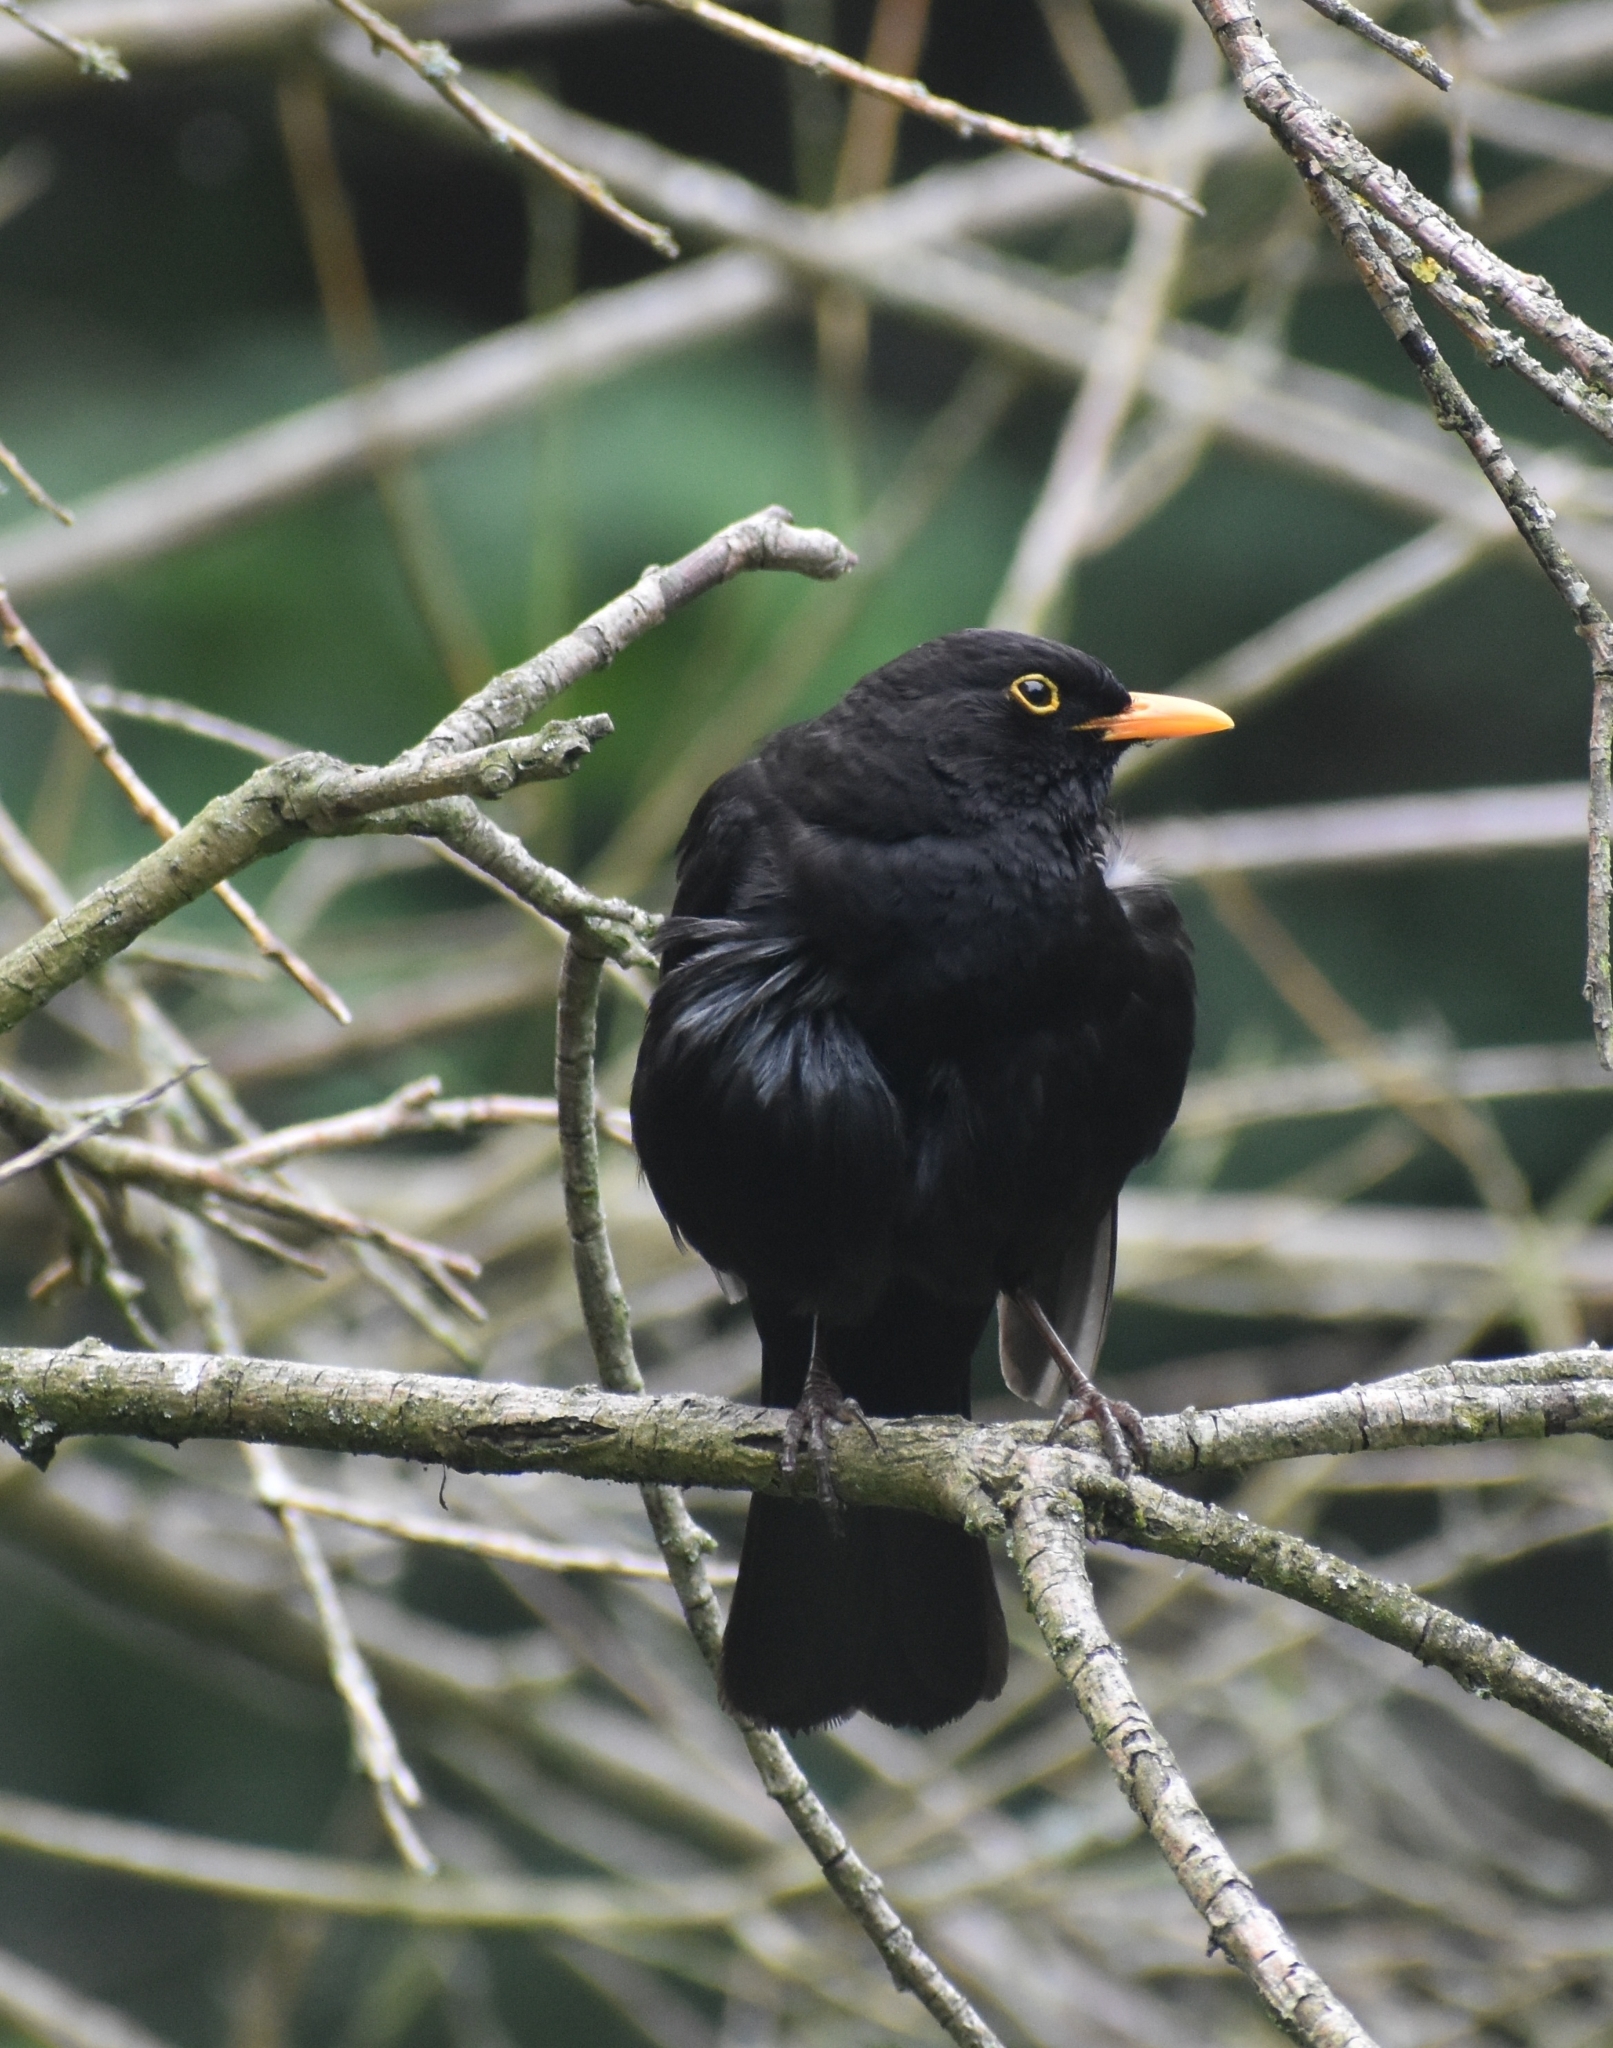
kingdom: Animalia
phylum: Chordata
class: Aves
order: Passeriformes
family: Turdidae
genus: Turdus
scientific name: Turdus merula
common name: Common blackbird
